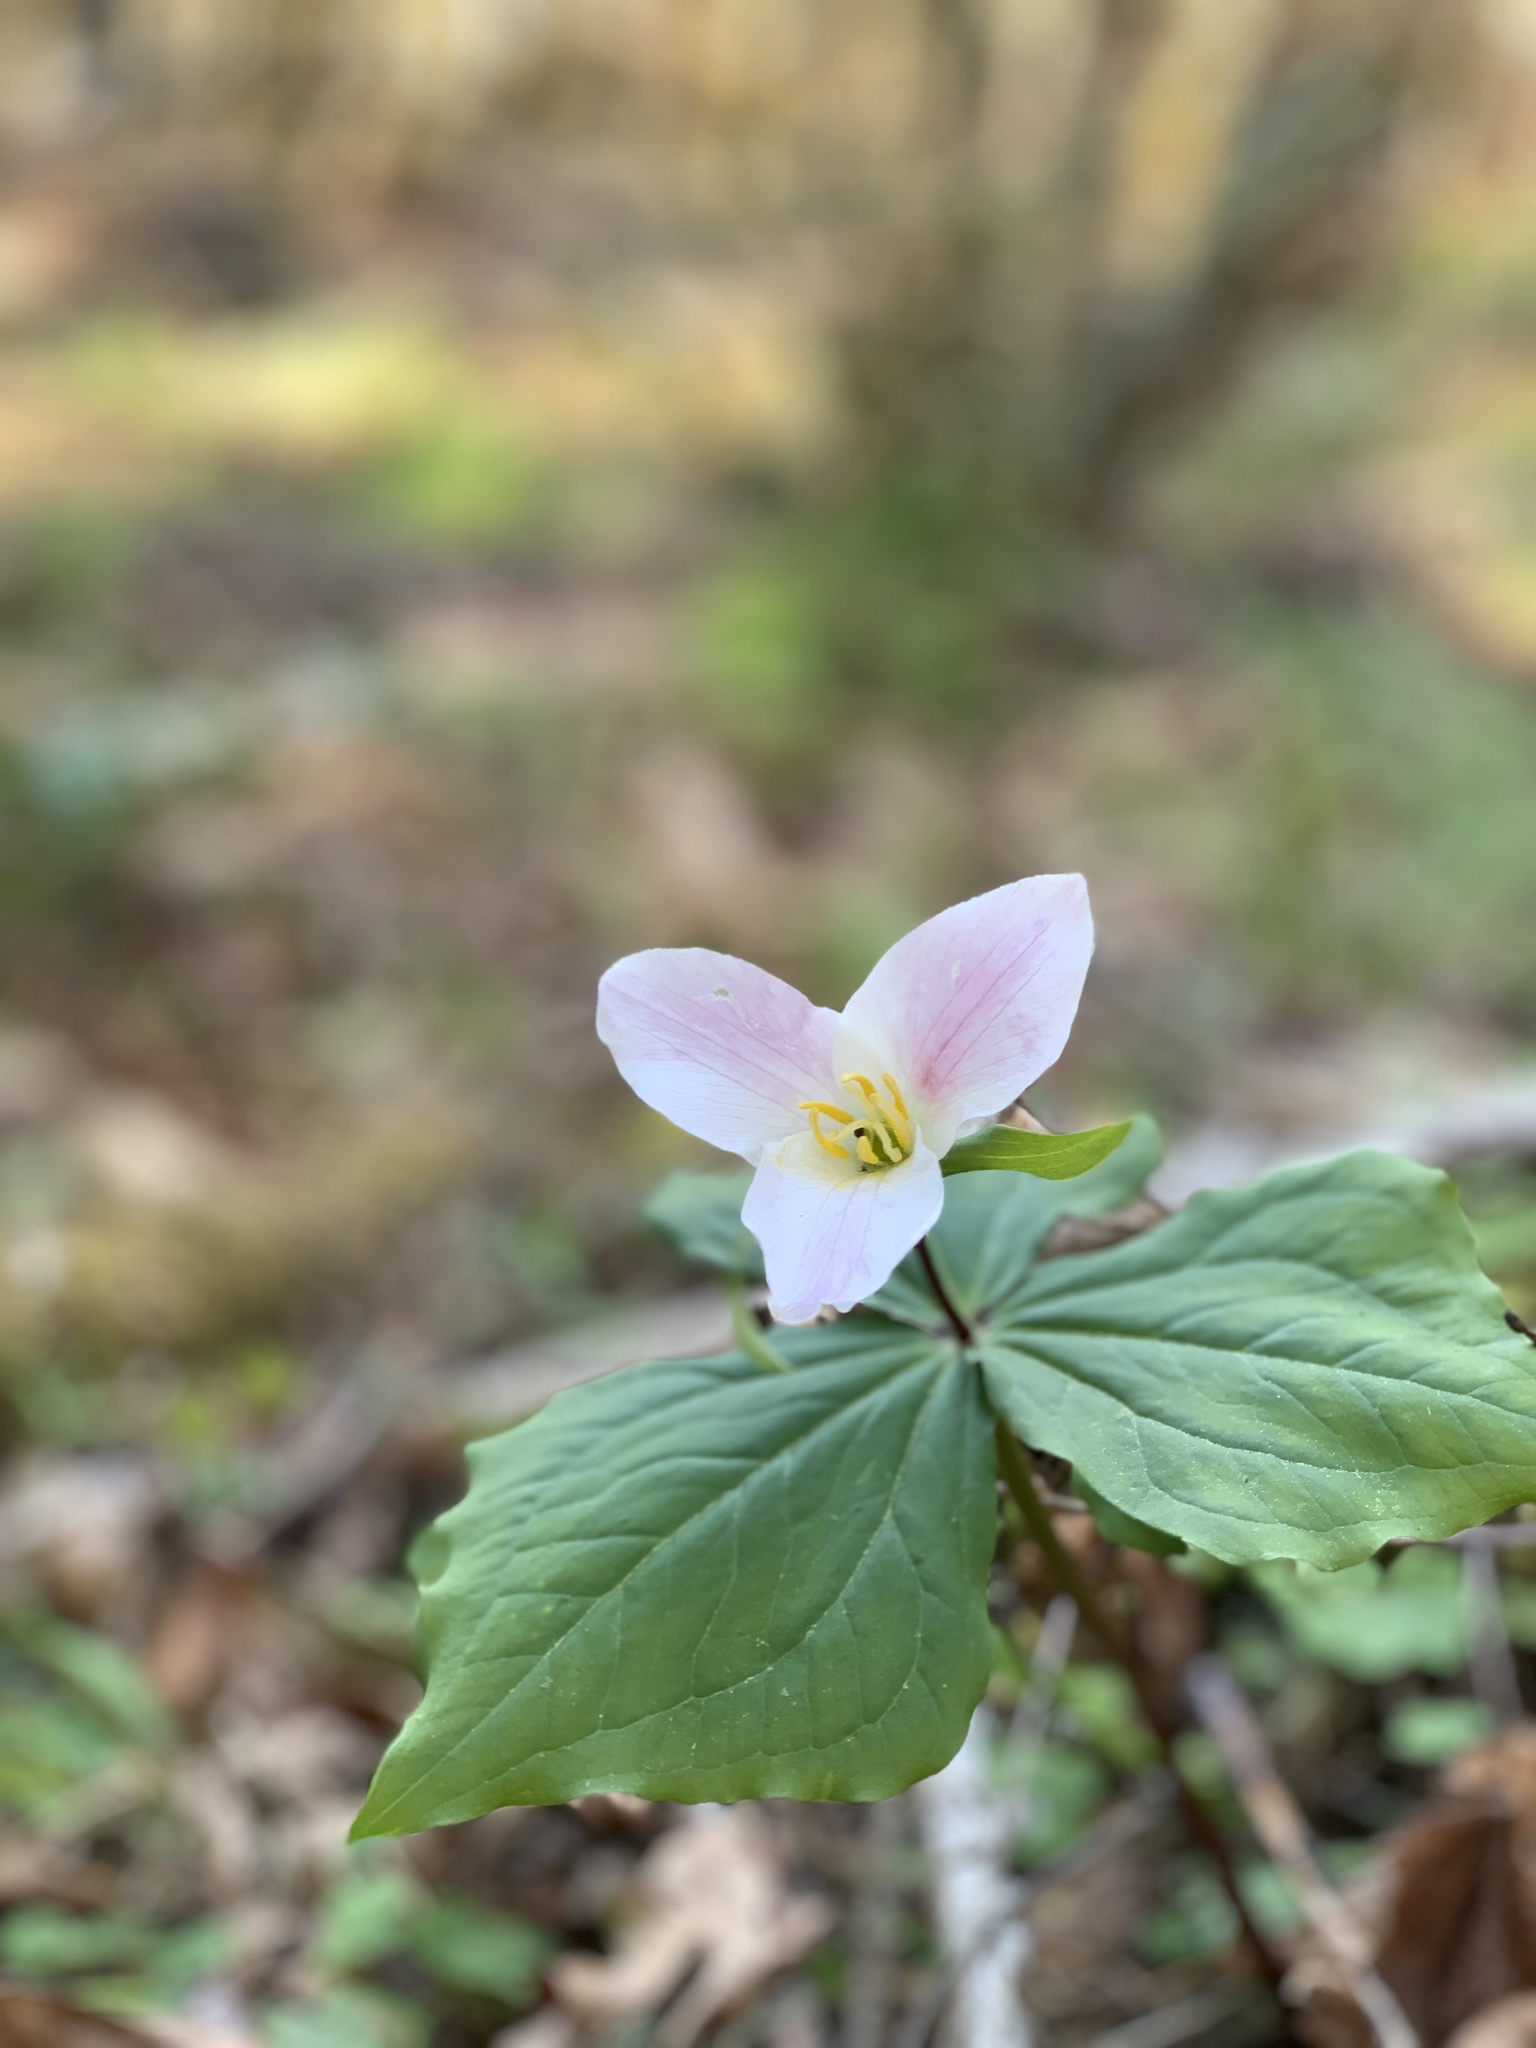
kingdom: Plantae
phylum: Tracheophyta
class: Liliopsida
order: Liliales
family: Melanthiaceae
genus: Trillium
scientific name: Trillium ovatum
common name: Pacific trillium
